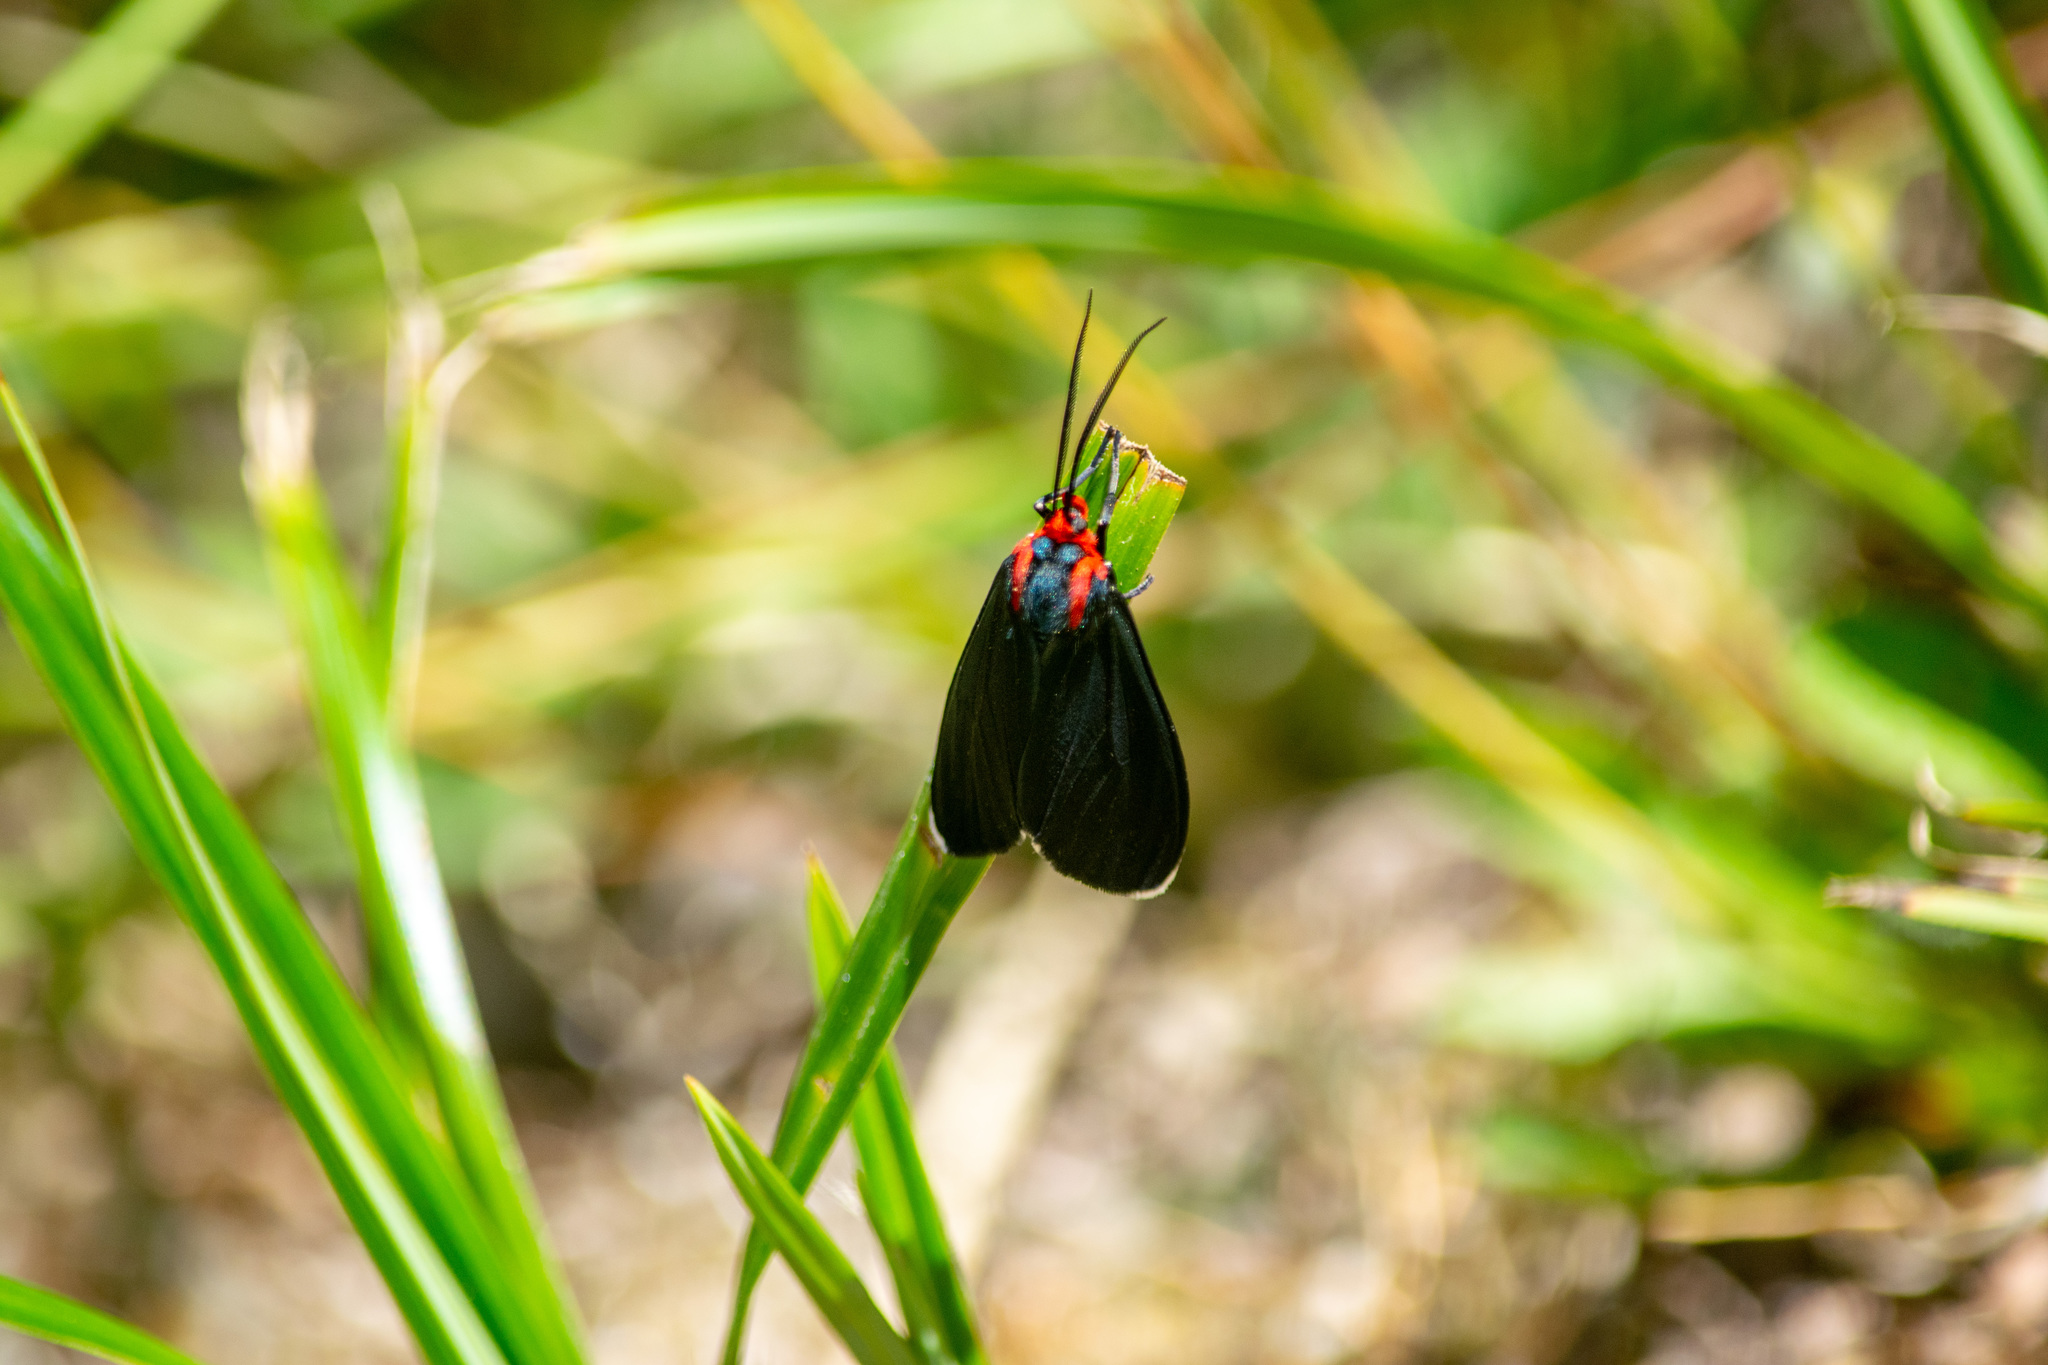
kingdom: Animalia
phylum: Arthropoda
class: Insecta
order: Lepidoptera
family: Erebidae
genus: Ctenucha
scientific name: Ctenucha rubroscapus
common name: Red-shouldered ctenucha
